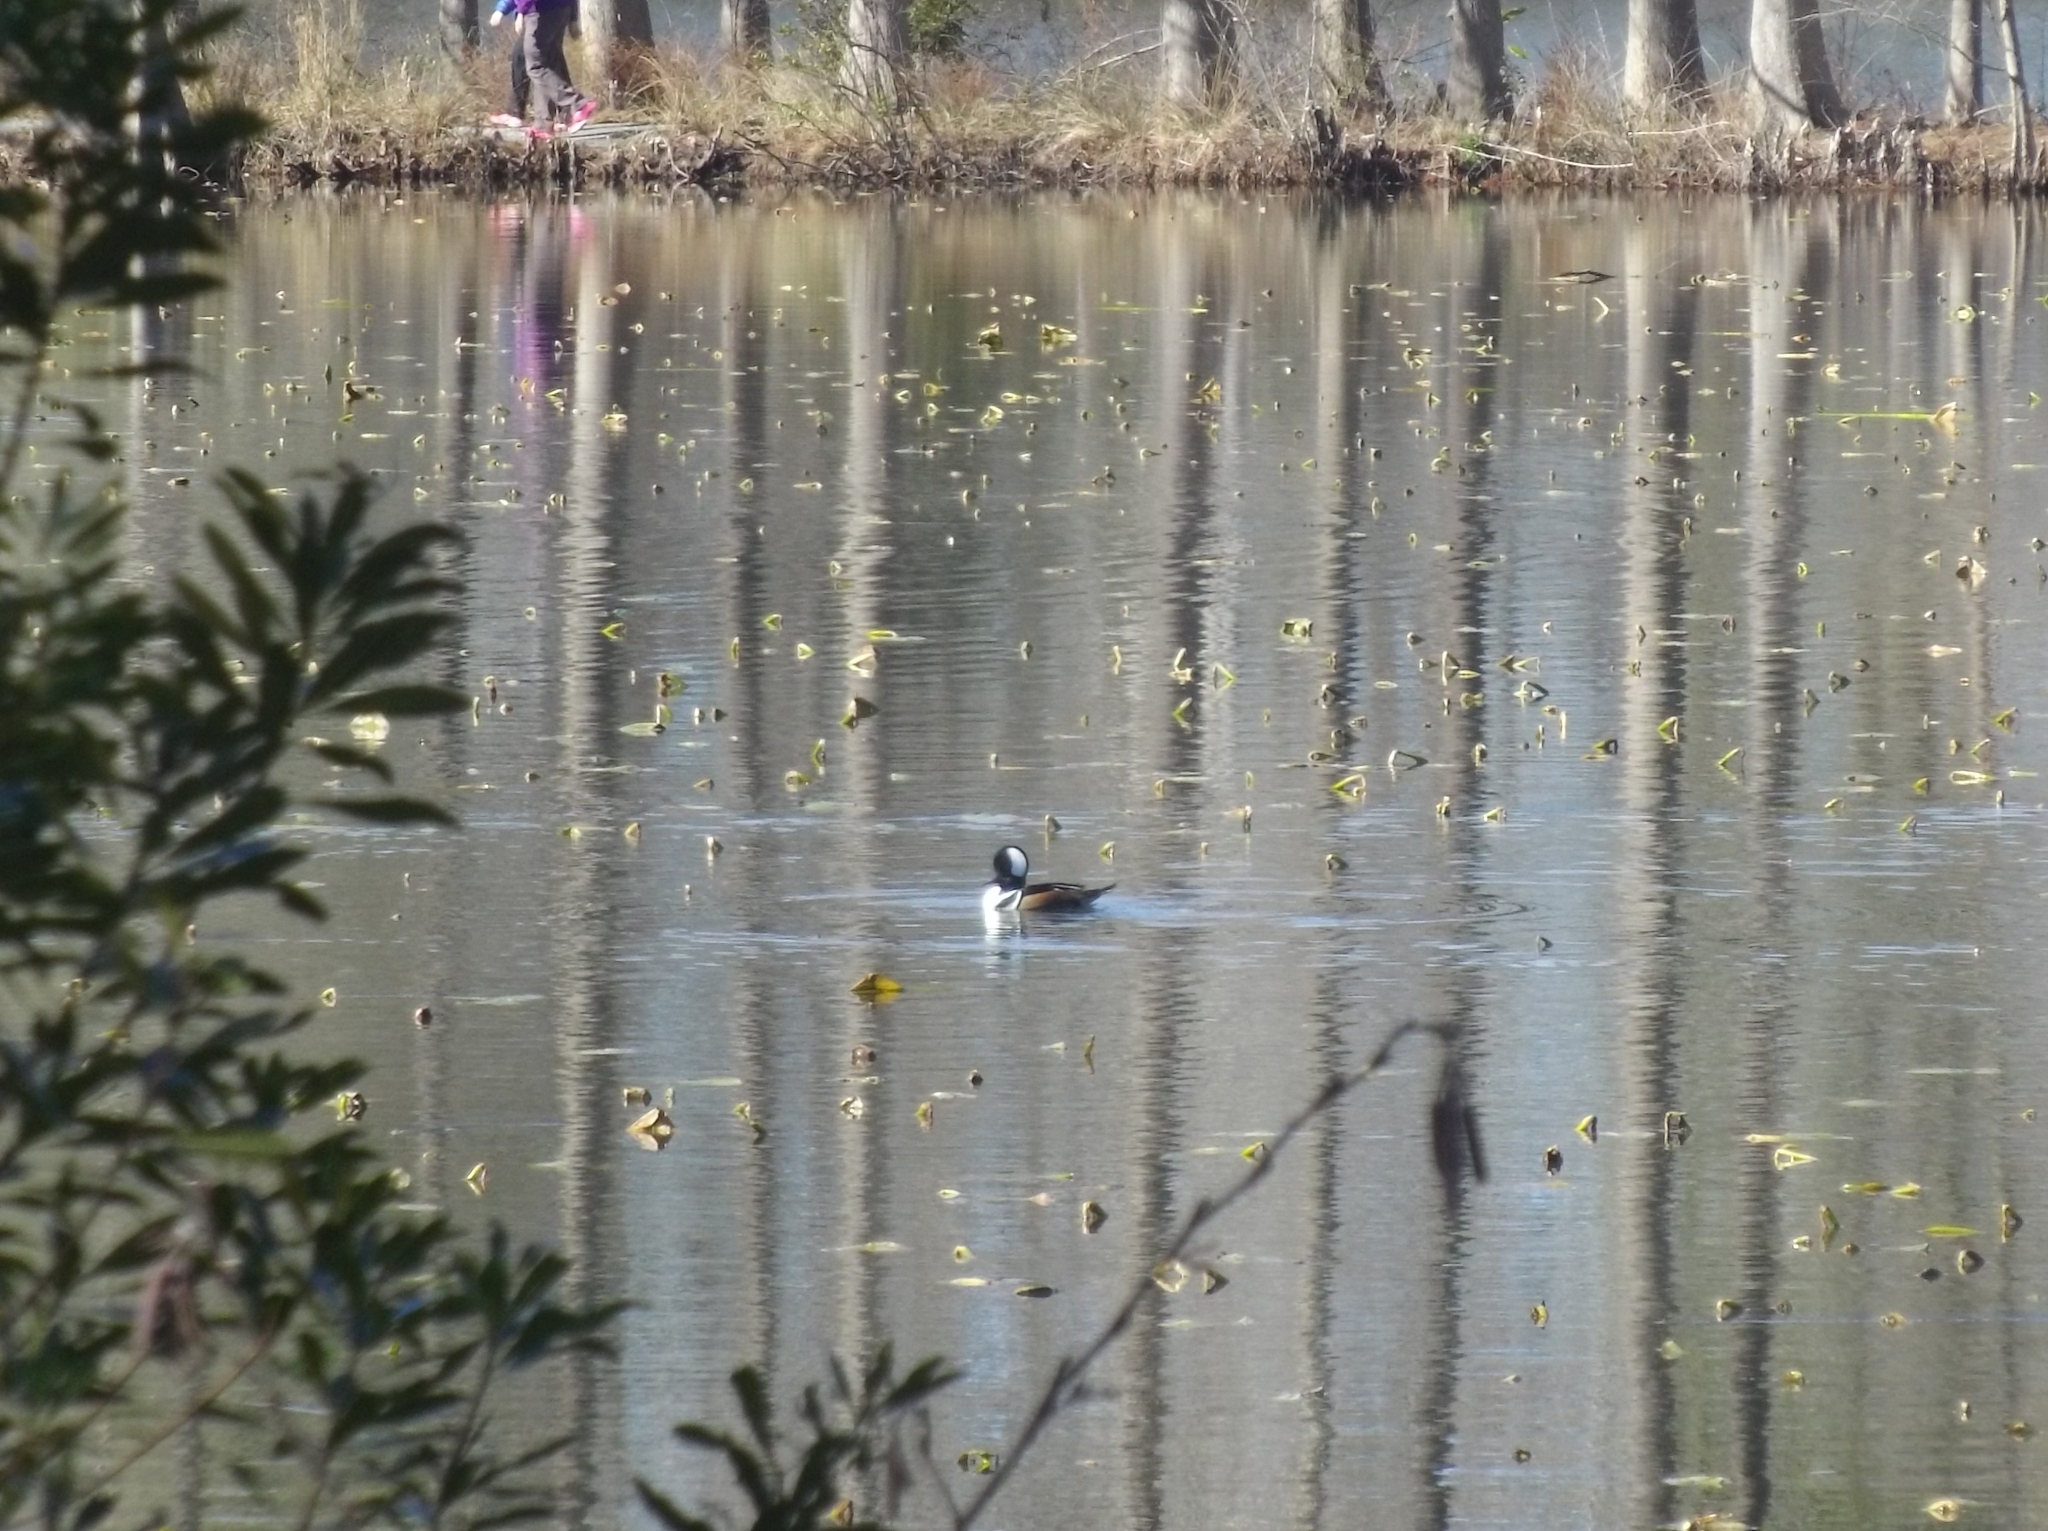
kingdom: Animalia
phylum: Chordata
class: Aves
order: Anseriformes
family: Anatidae
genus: Lophodytes
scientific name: Lophodytes cucullatus
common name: Hooded merganser
